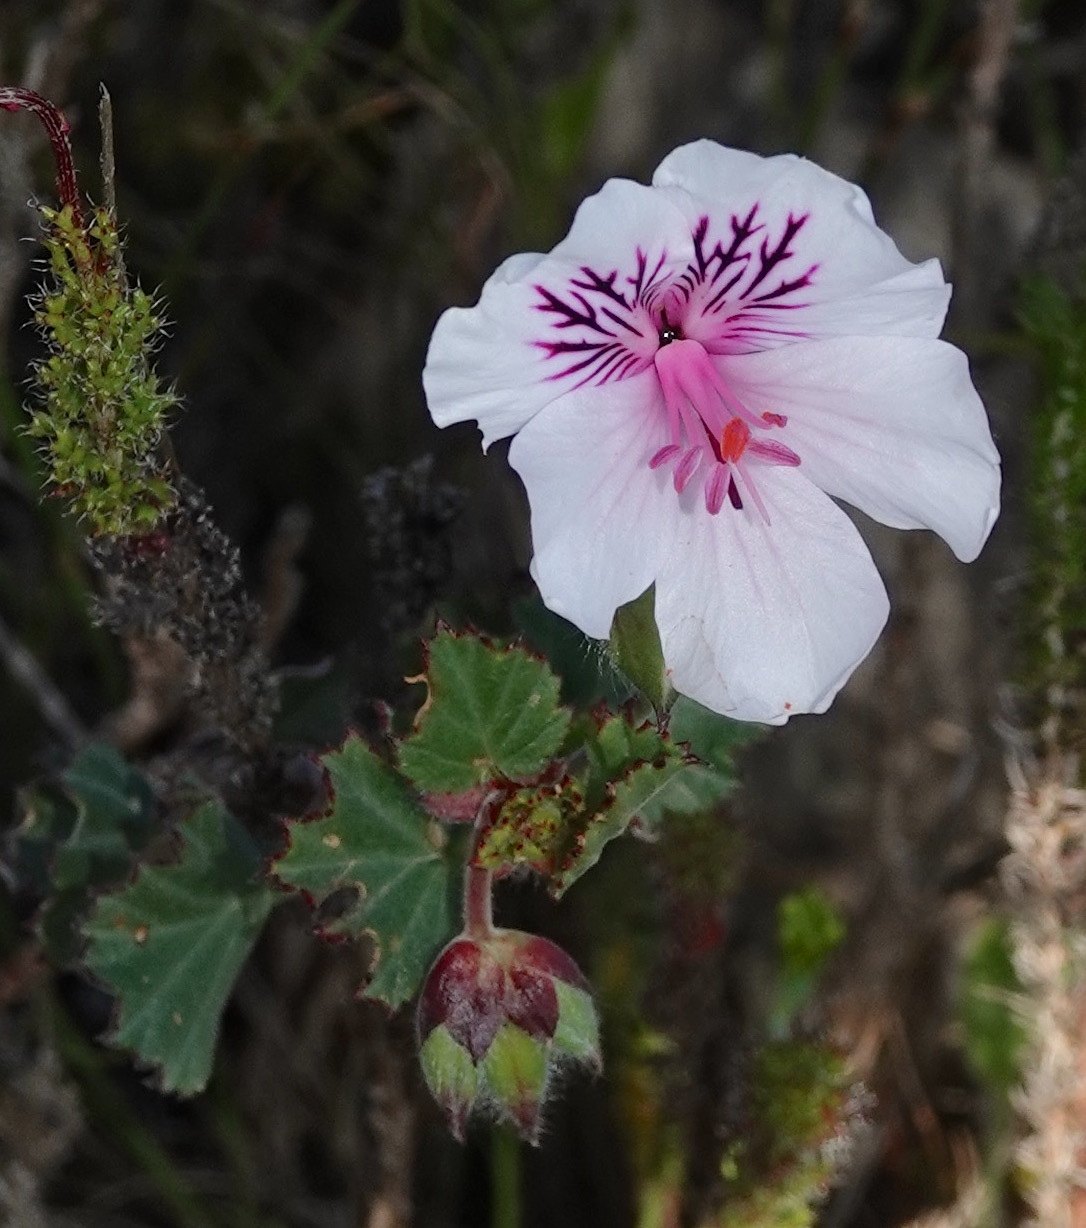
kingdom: Plantae
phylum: Tracheophyta
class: Magnoliopsida
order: Geraniales
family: Geraniaceae
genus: Pelargonium
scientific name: Pelargonium elegans
